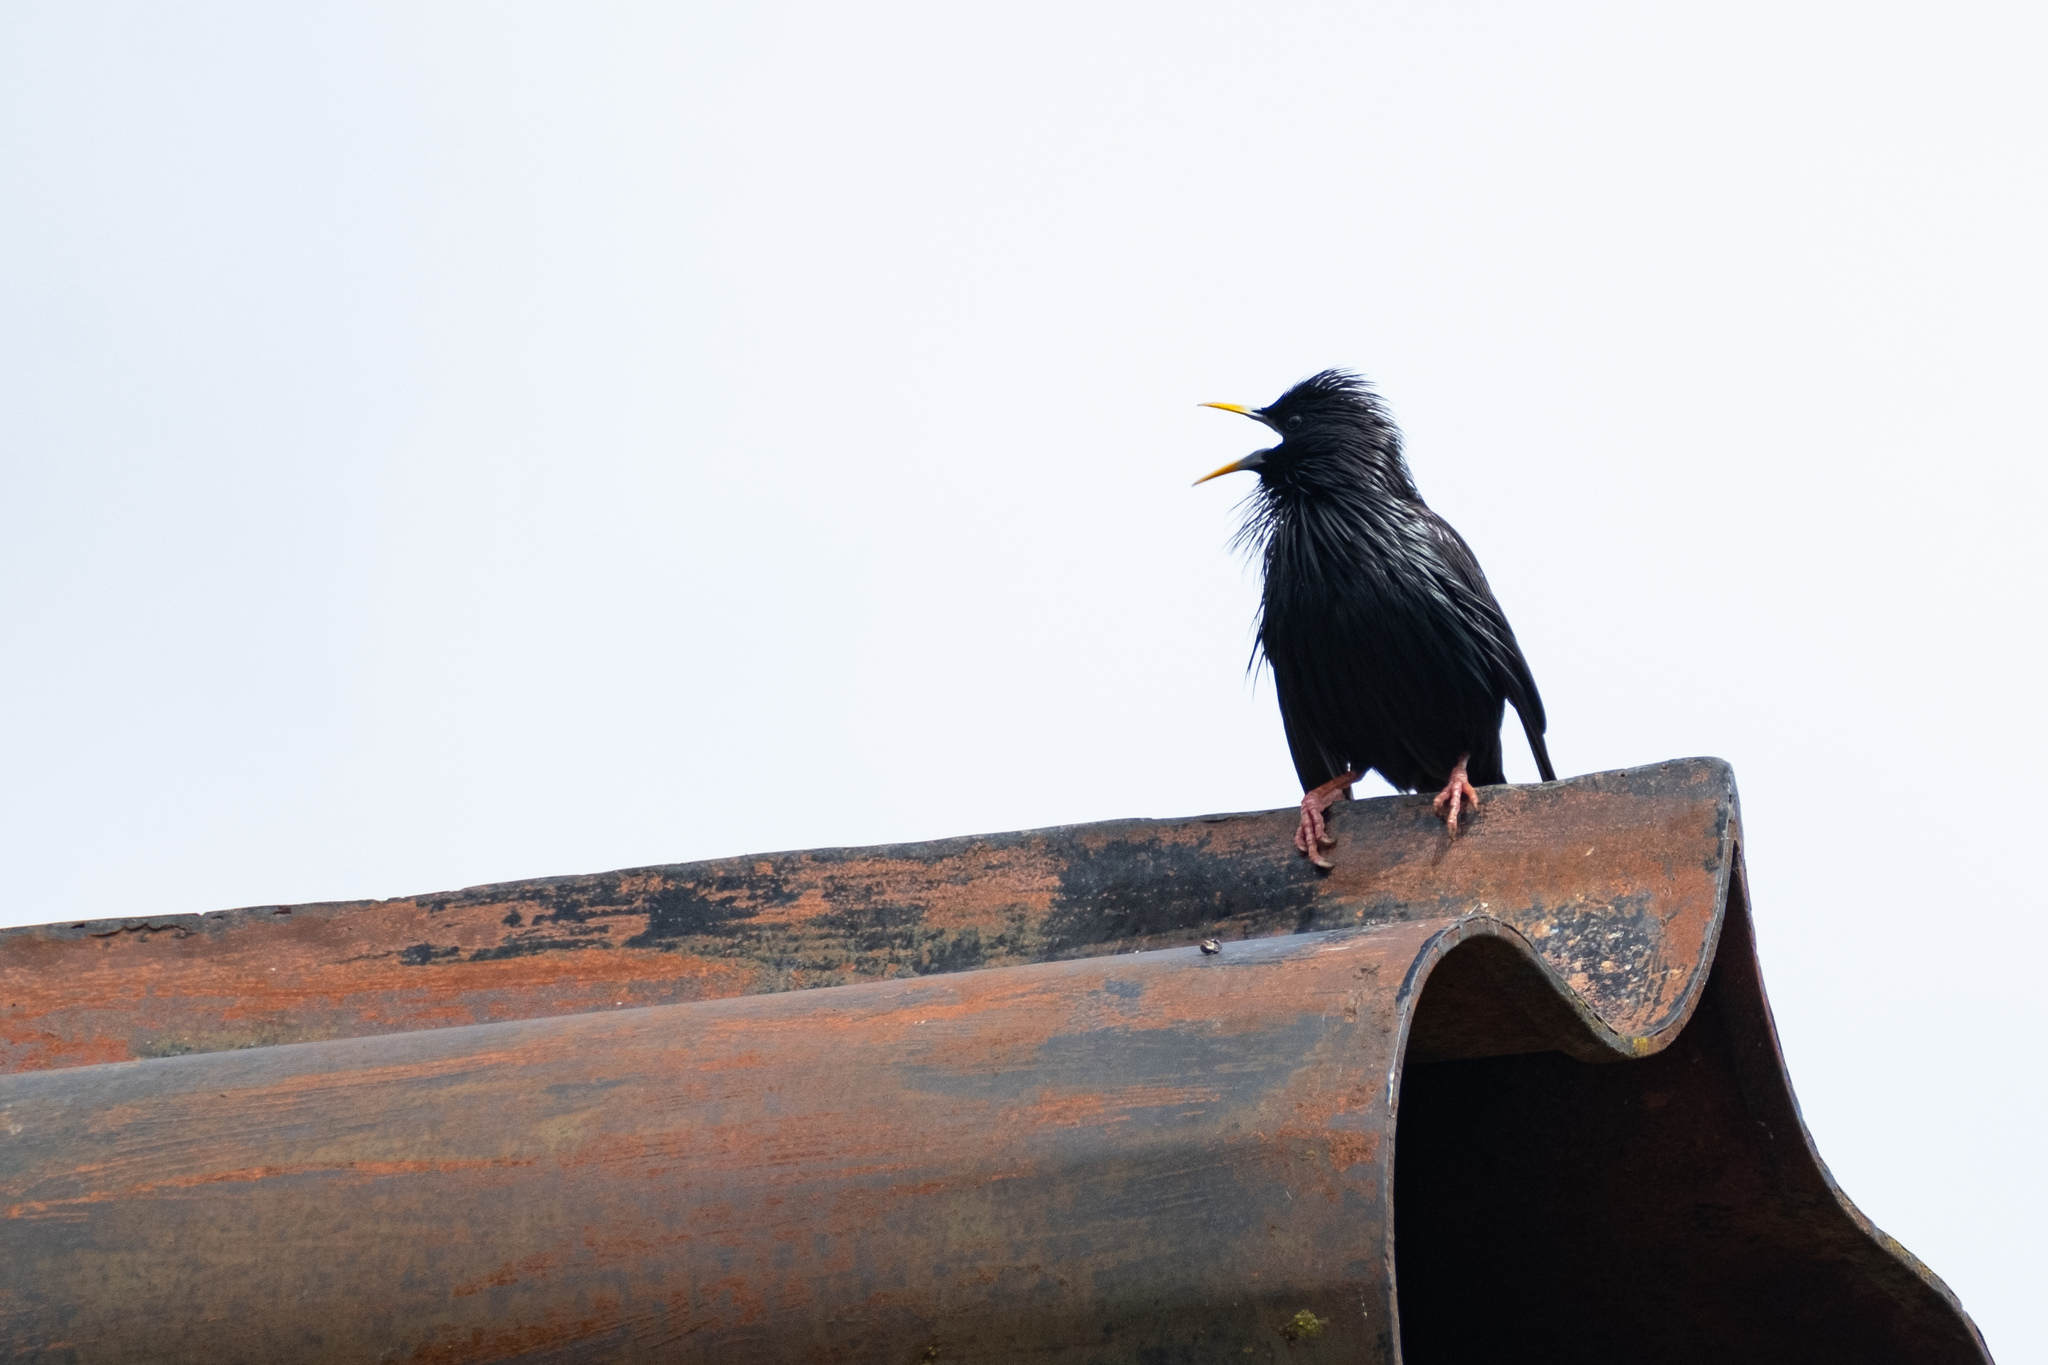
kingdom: Animalia
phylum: Chordata
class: Aves
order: Passeriformes
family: Sturnidae
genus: Sturnus
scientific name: Sturnus unicolor
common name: Spotless starling
